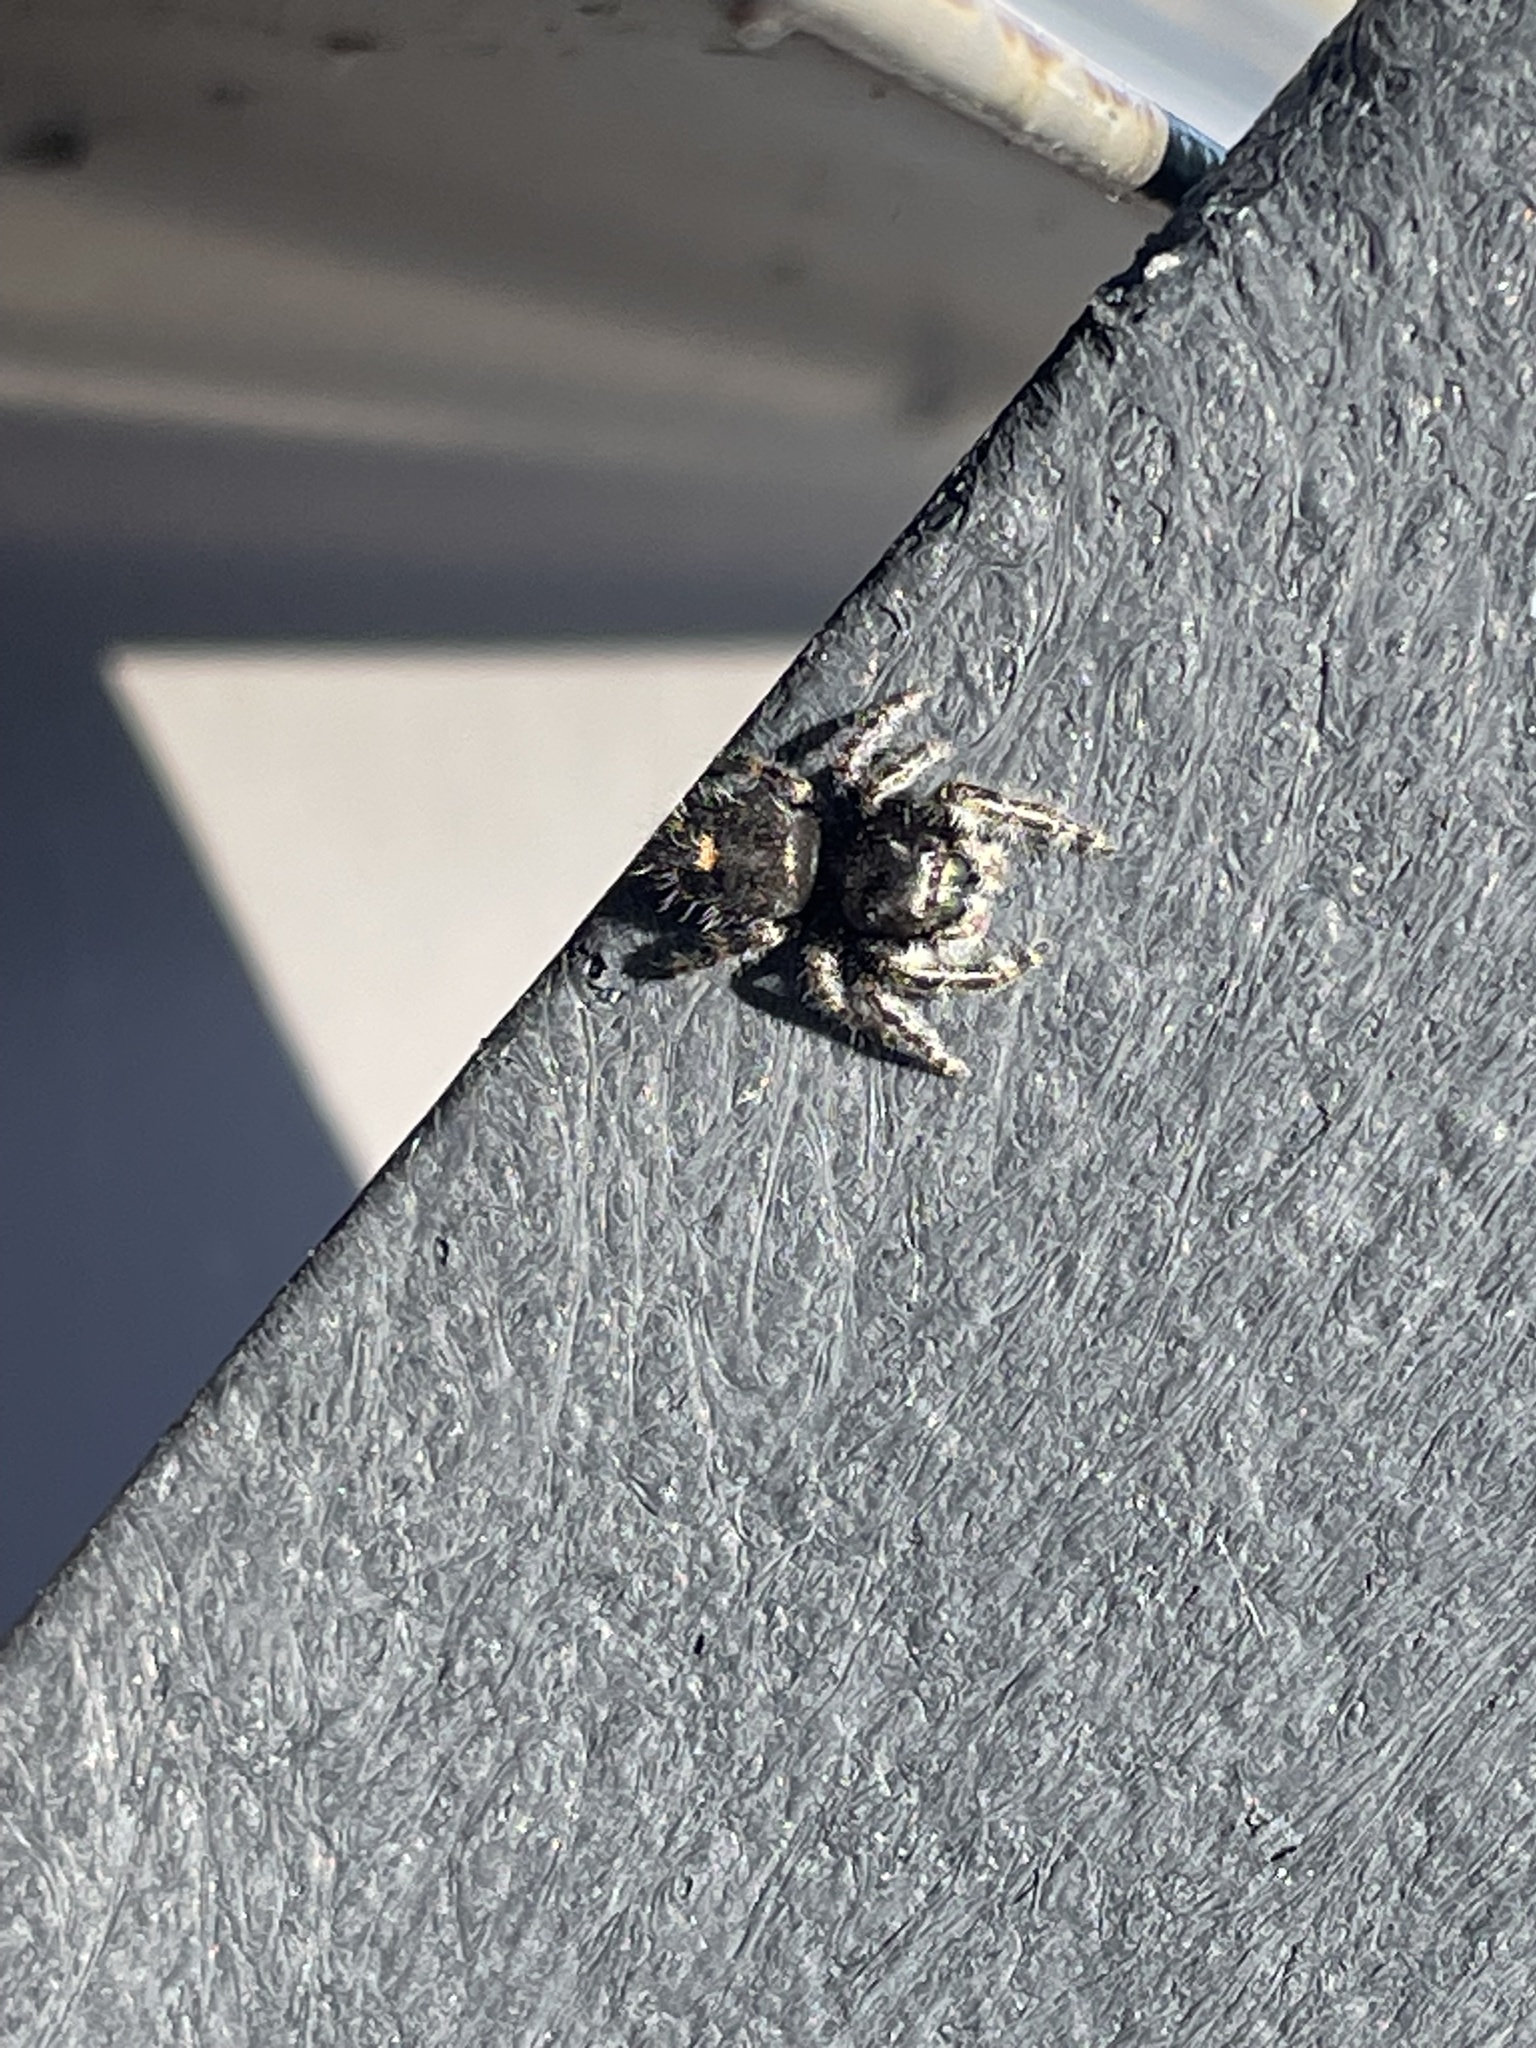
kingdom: Animalia
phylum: Arthropoda
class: Arachnida
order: Araneae
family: Salticidae
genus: Phidippus
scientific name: Phidippus audax
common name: Bold jumper
